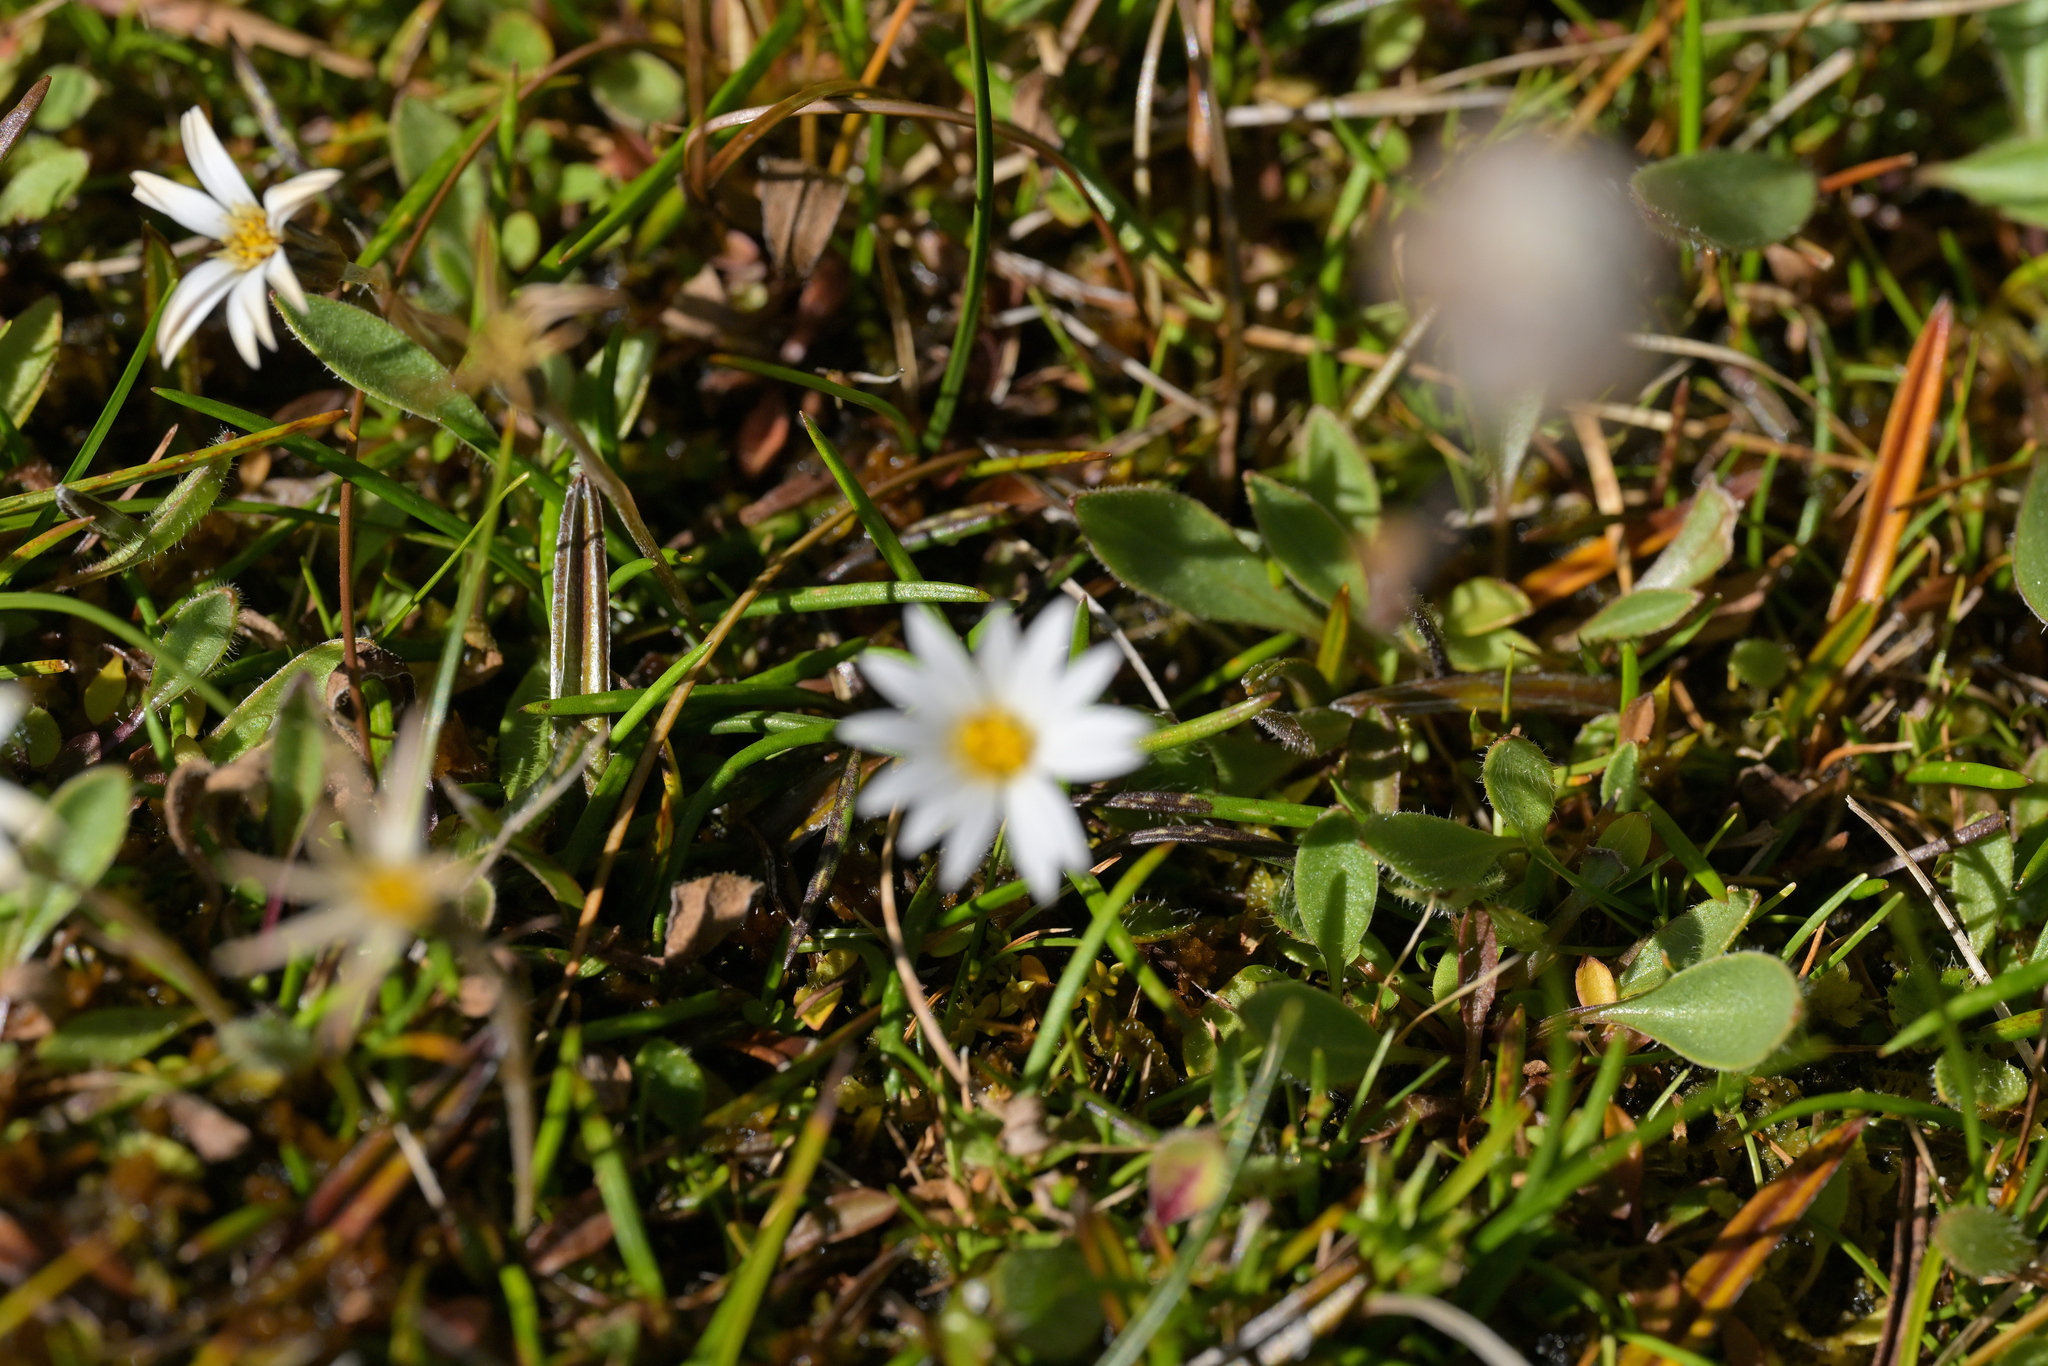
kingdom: Plantae
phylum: Tracheophyta
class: Magnoliopsida
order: Asterales
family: Asteraceae
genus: Celmisia
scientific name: Celmisia alpina
